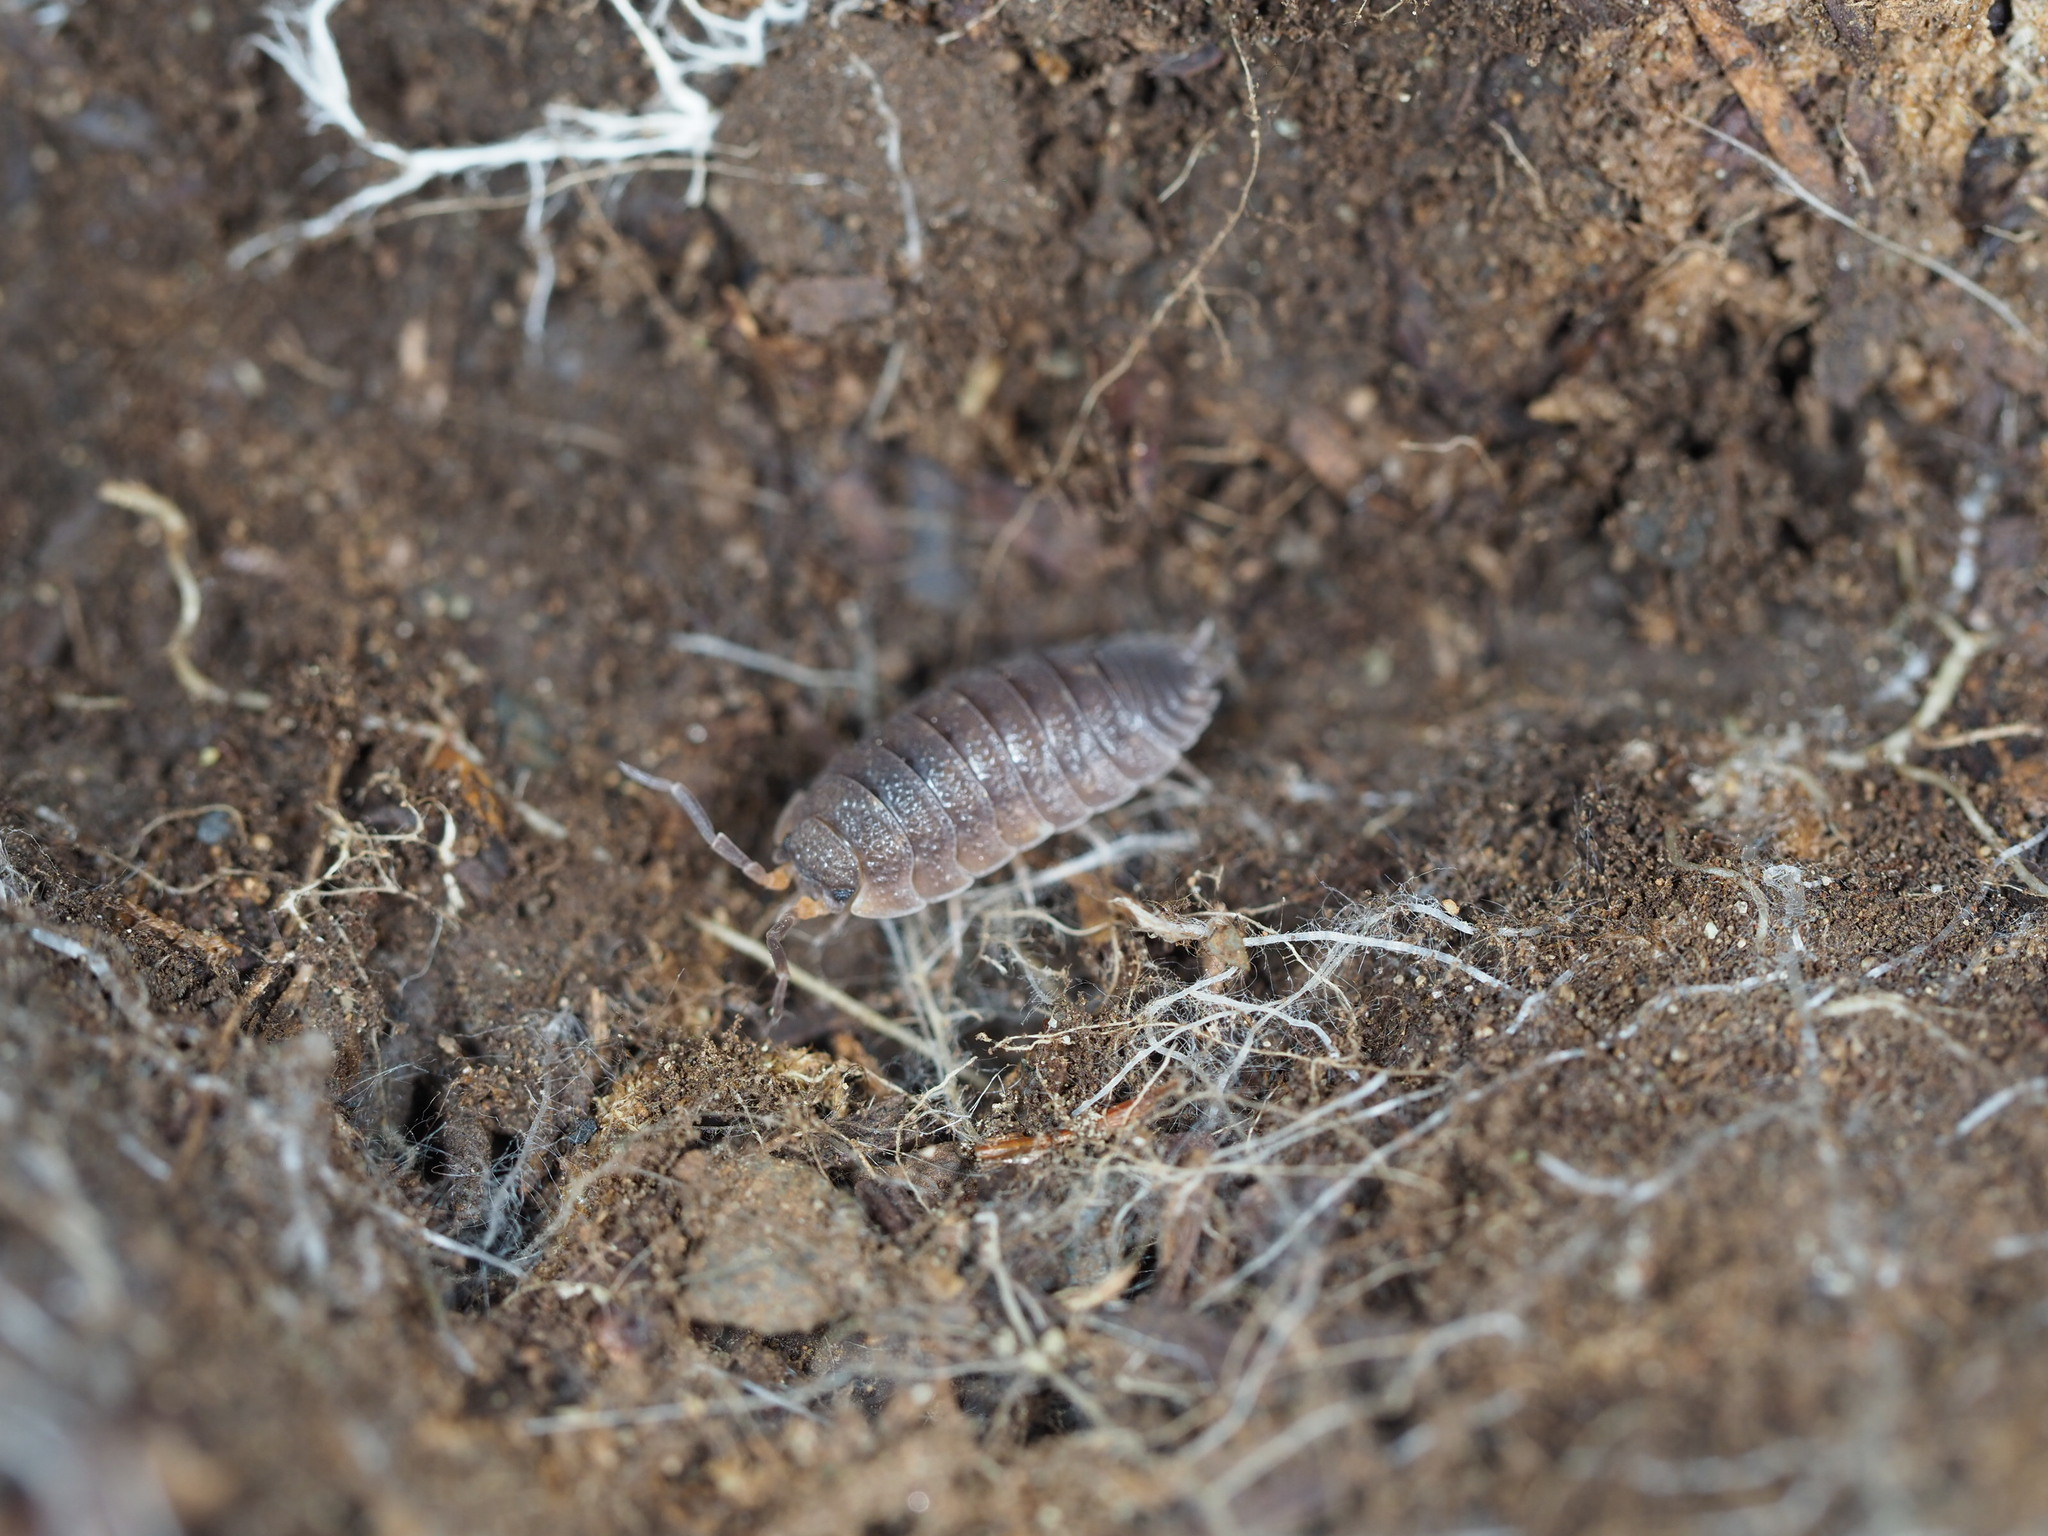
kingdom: Animalia
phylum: Arthropoda
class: Malacostraca
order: Isopoda
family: Porcellionidae
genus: Porcellio
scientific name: Porcellio scaber
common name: Common rough woodlouse
